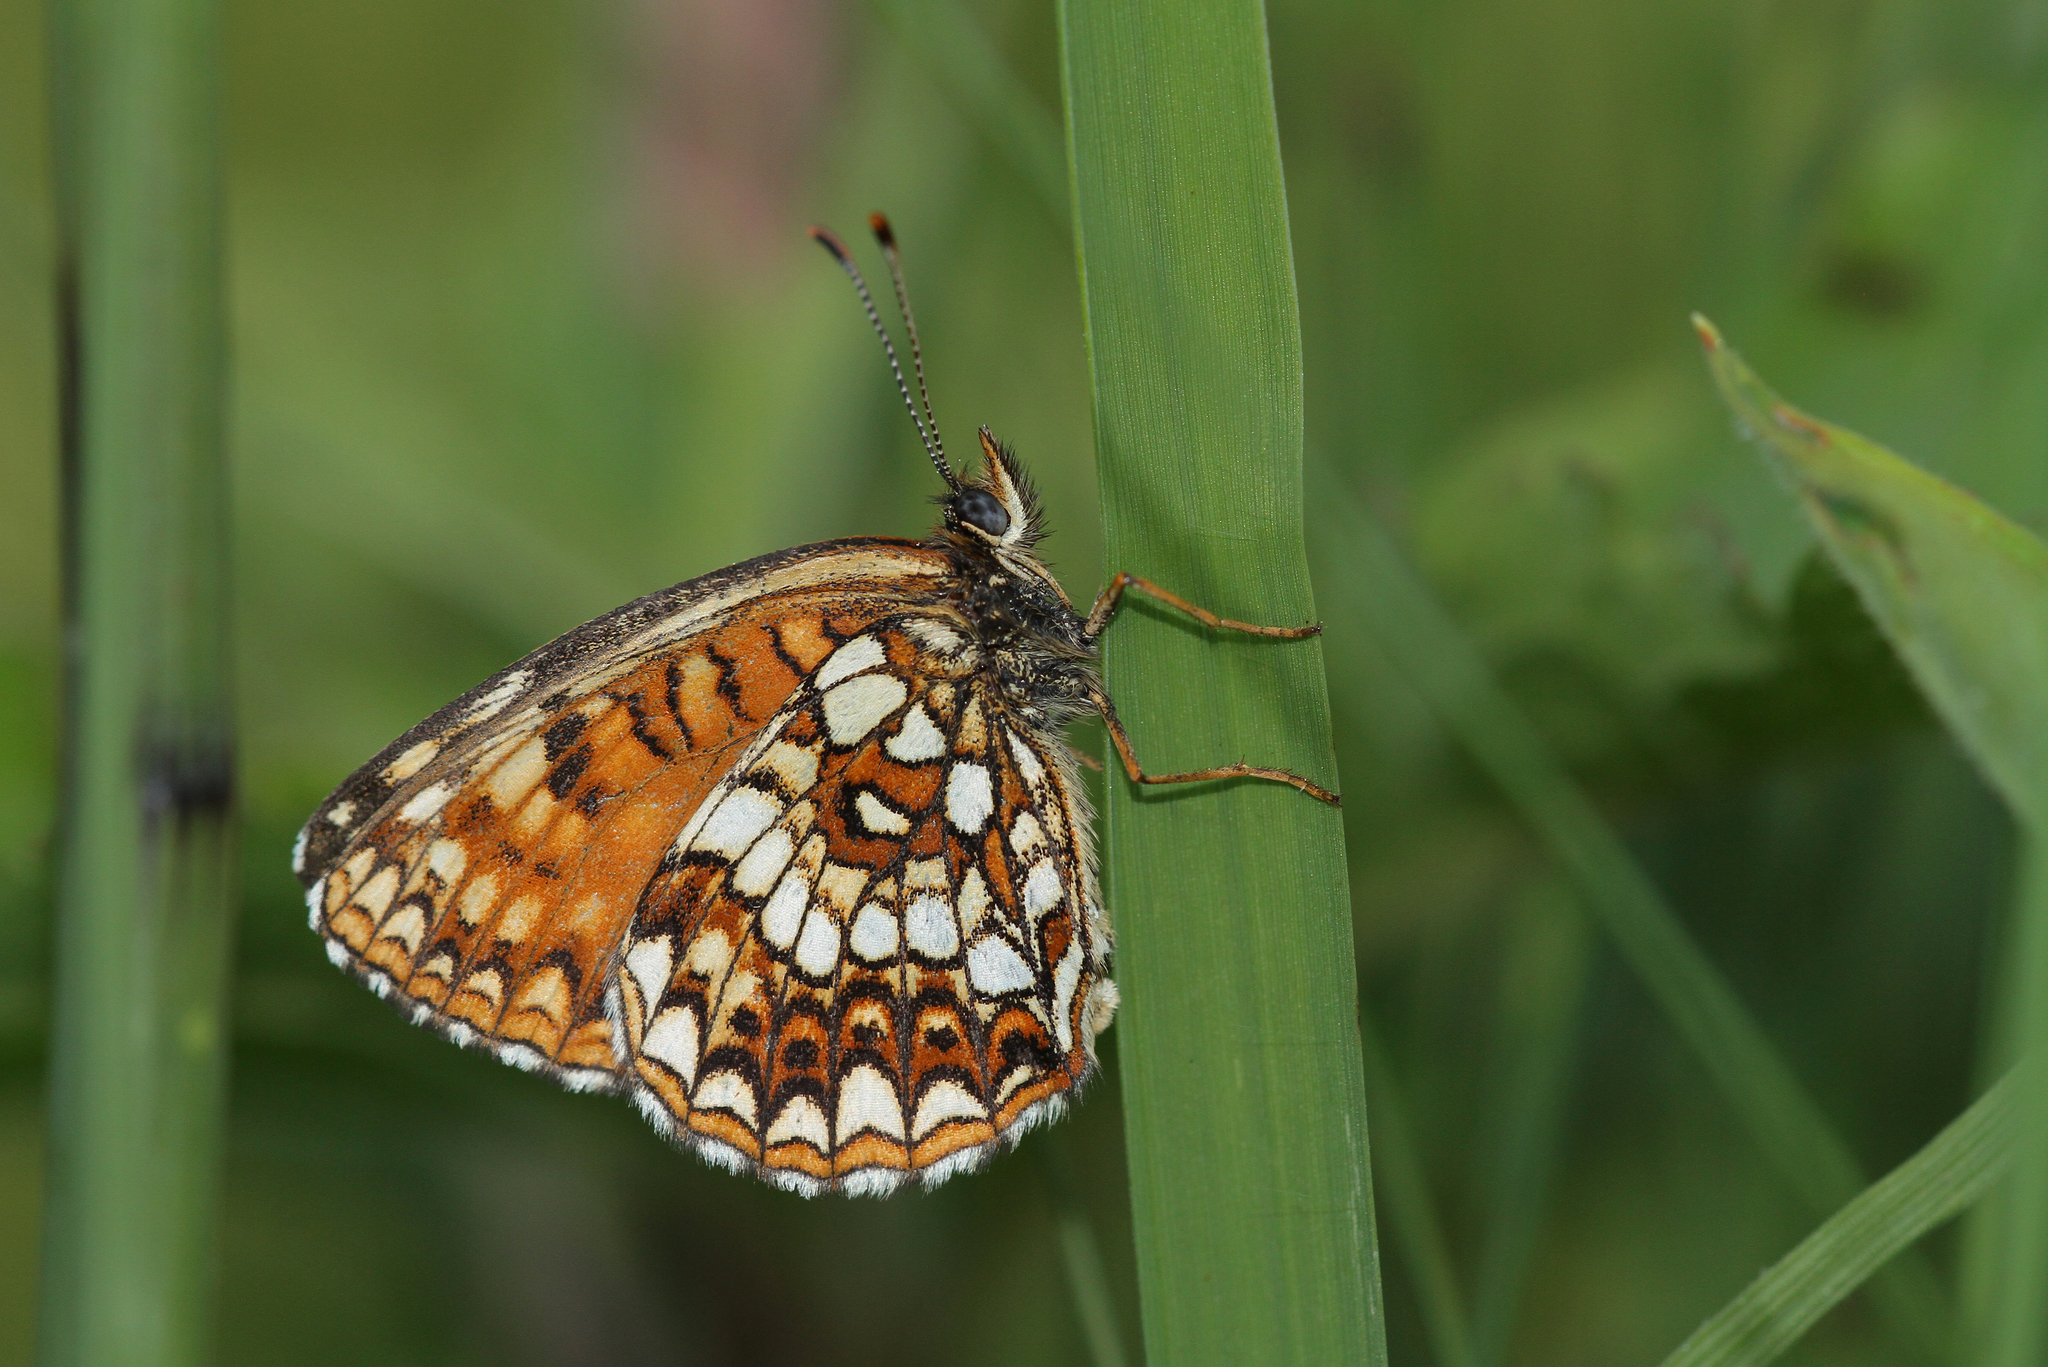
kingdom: Animalia
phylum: Arthropoda
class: Insecta
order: Lepidoptera
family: Nymphalidae
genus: Melitaea
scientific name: Melitaea diamina
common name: False heath fritillary
